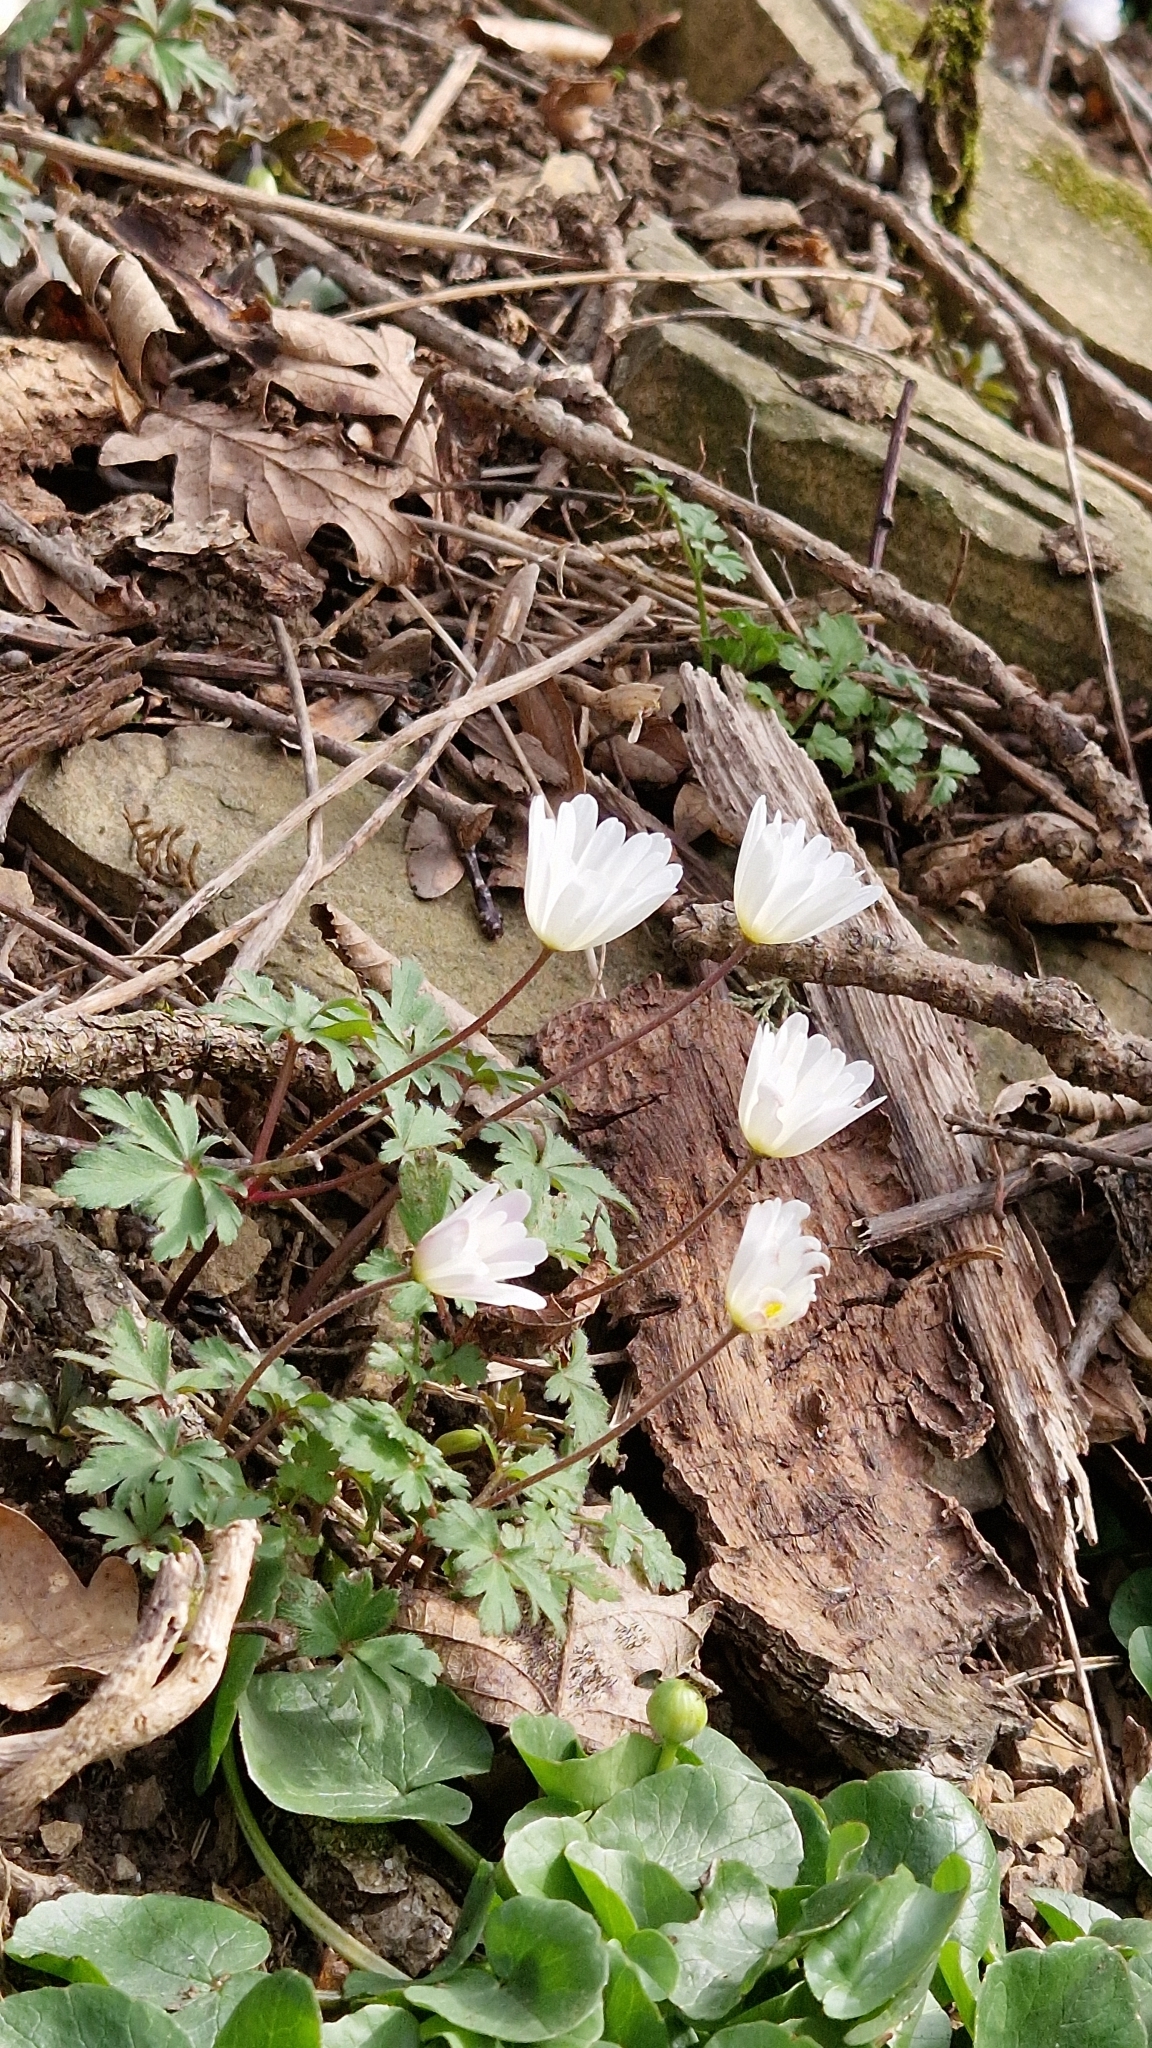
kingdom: Plantae
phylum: Tracheophyta
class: Magnoliopsida
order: Ranunculales
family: Ranunculaceae
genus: Anemone
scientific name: Anemone blanda
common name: Balkan anemone
